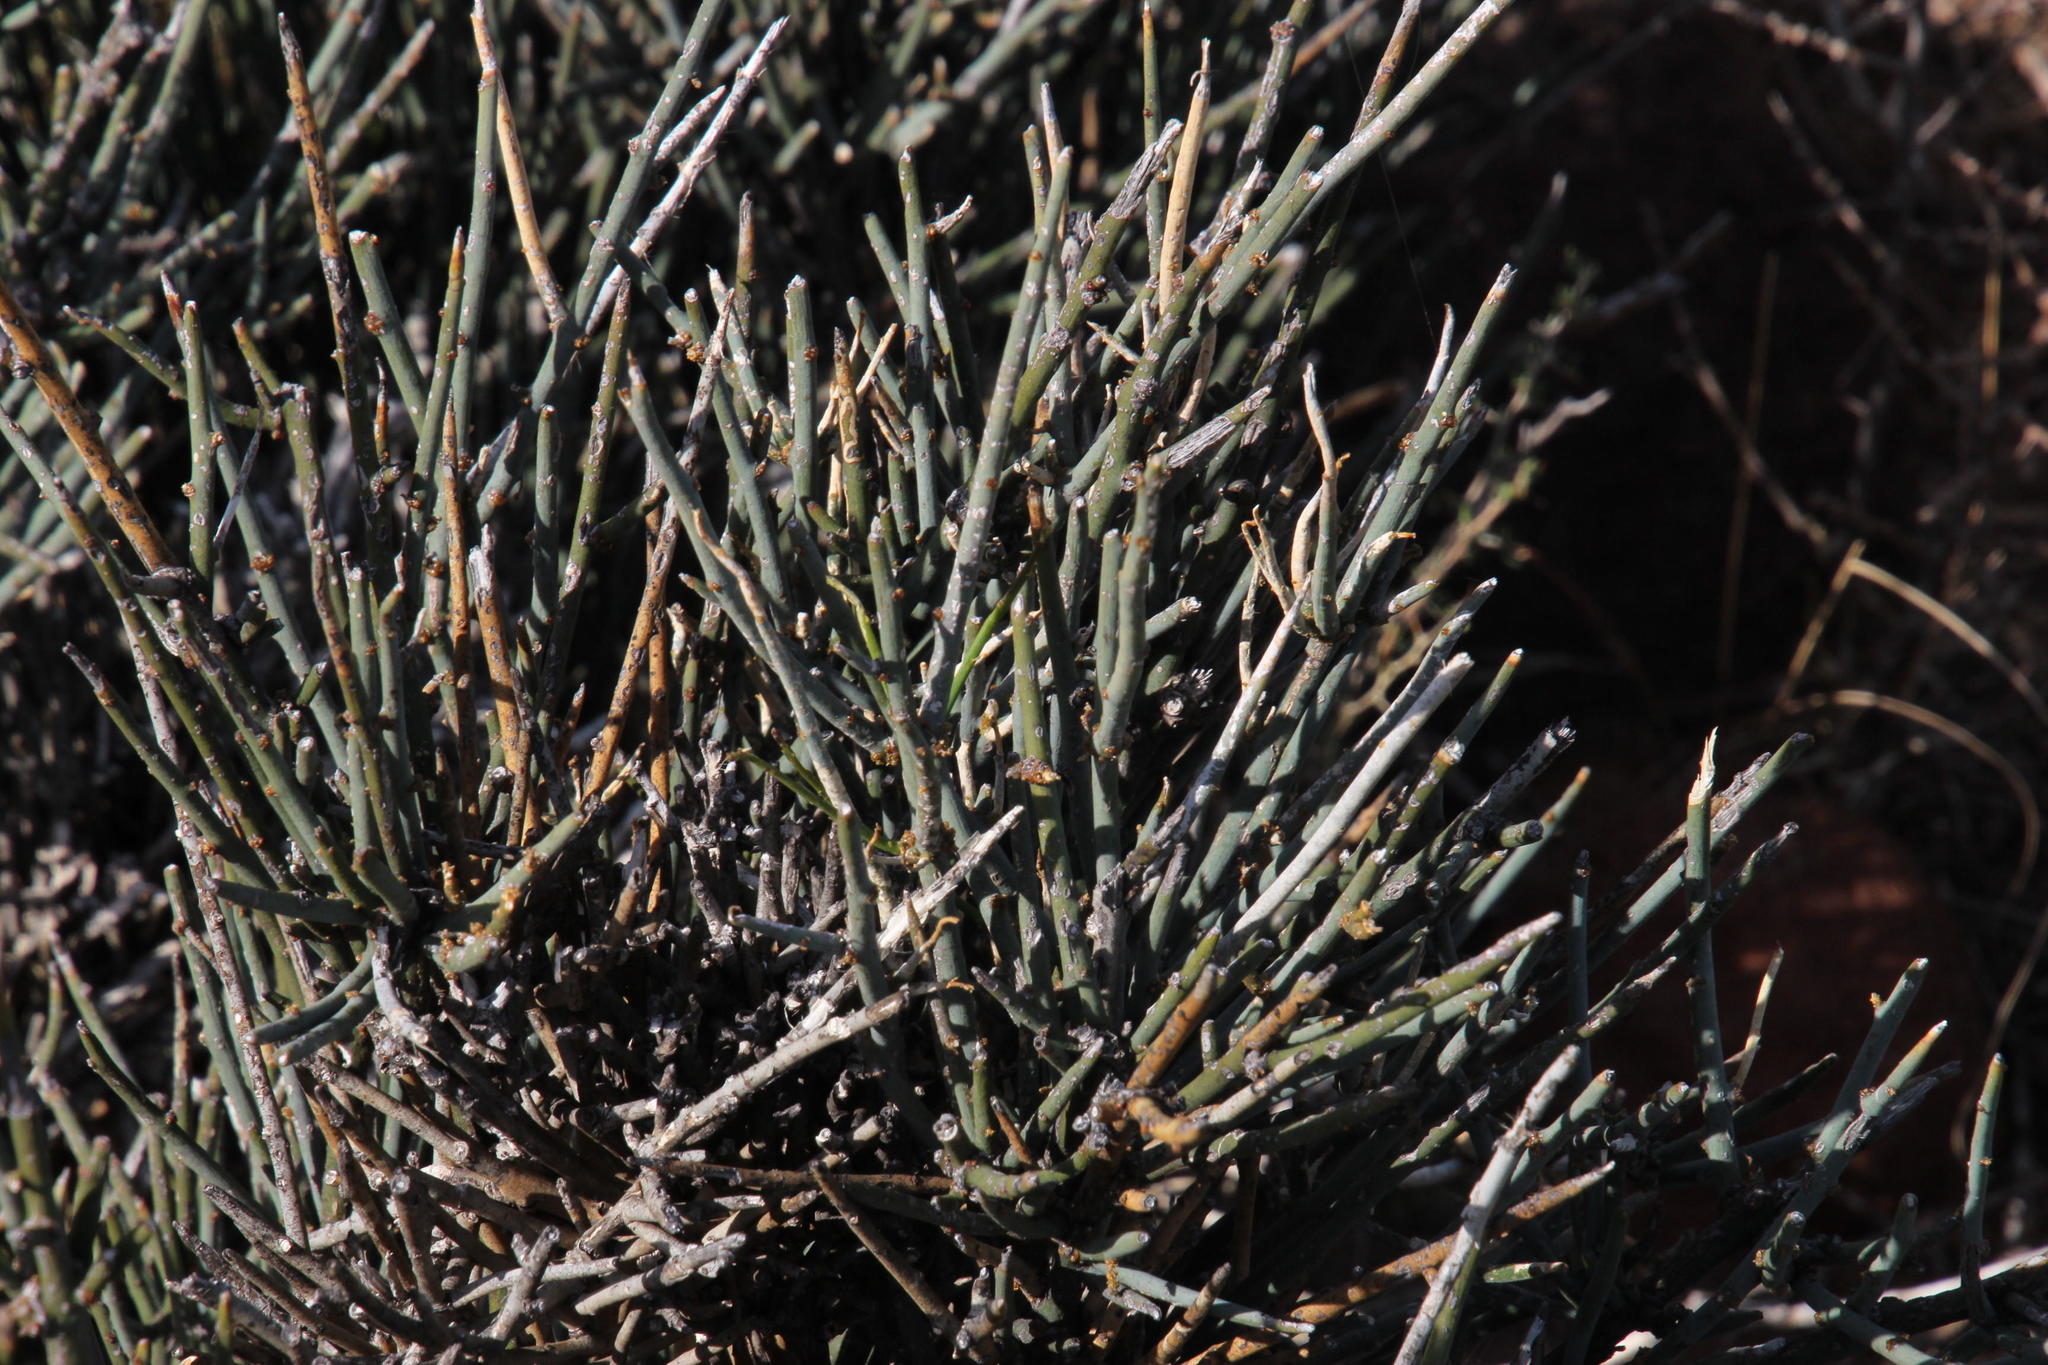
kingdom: Plantae
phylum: Tracheophyta
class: Magnoliopsida
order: Brassicales
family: Capparaceae
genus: Cadaba
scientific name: Cadaba aphylla
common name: Black storm
